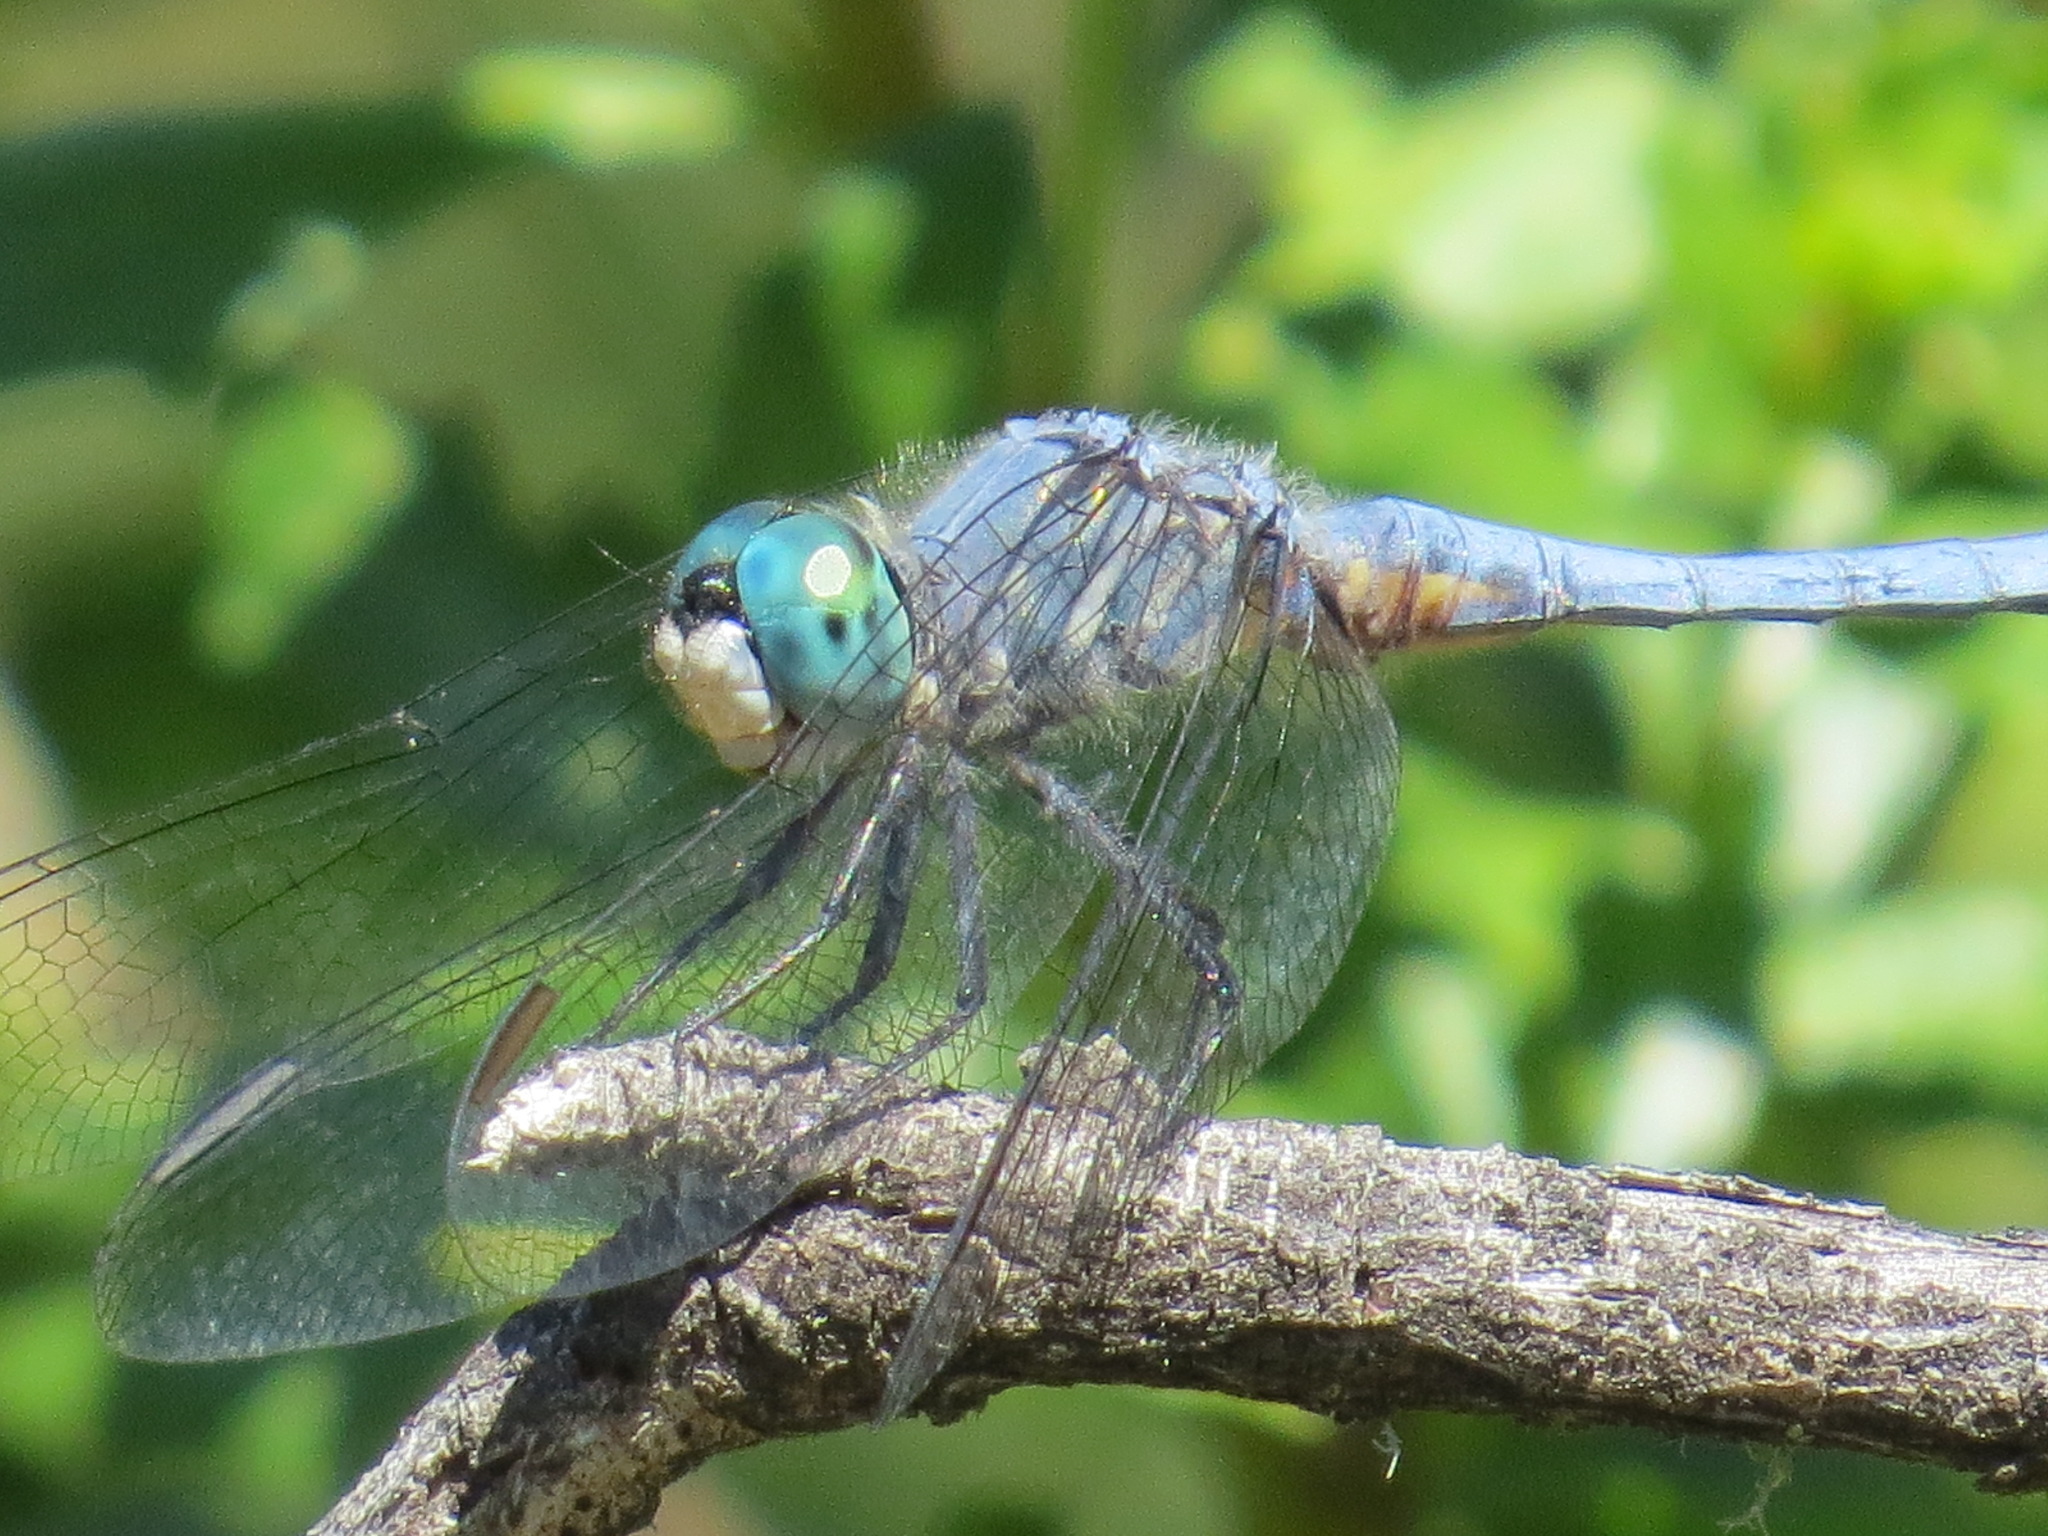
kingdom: Animalia
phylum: Arthropoda
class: Insecta
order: Odonata
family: Libellulidae
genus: Pachydiplax
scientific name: Pachydiplax longipennis
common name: Blue dasher
